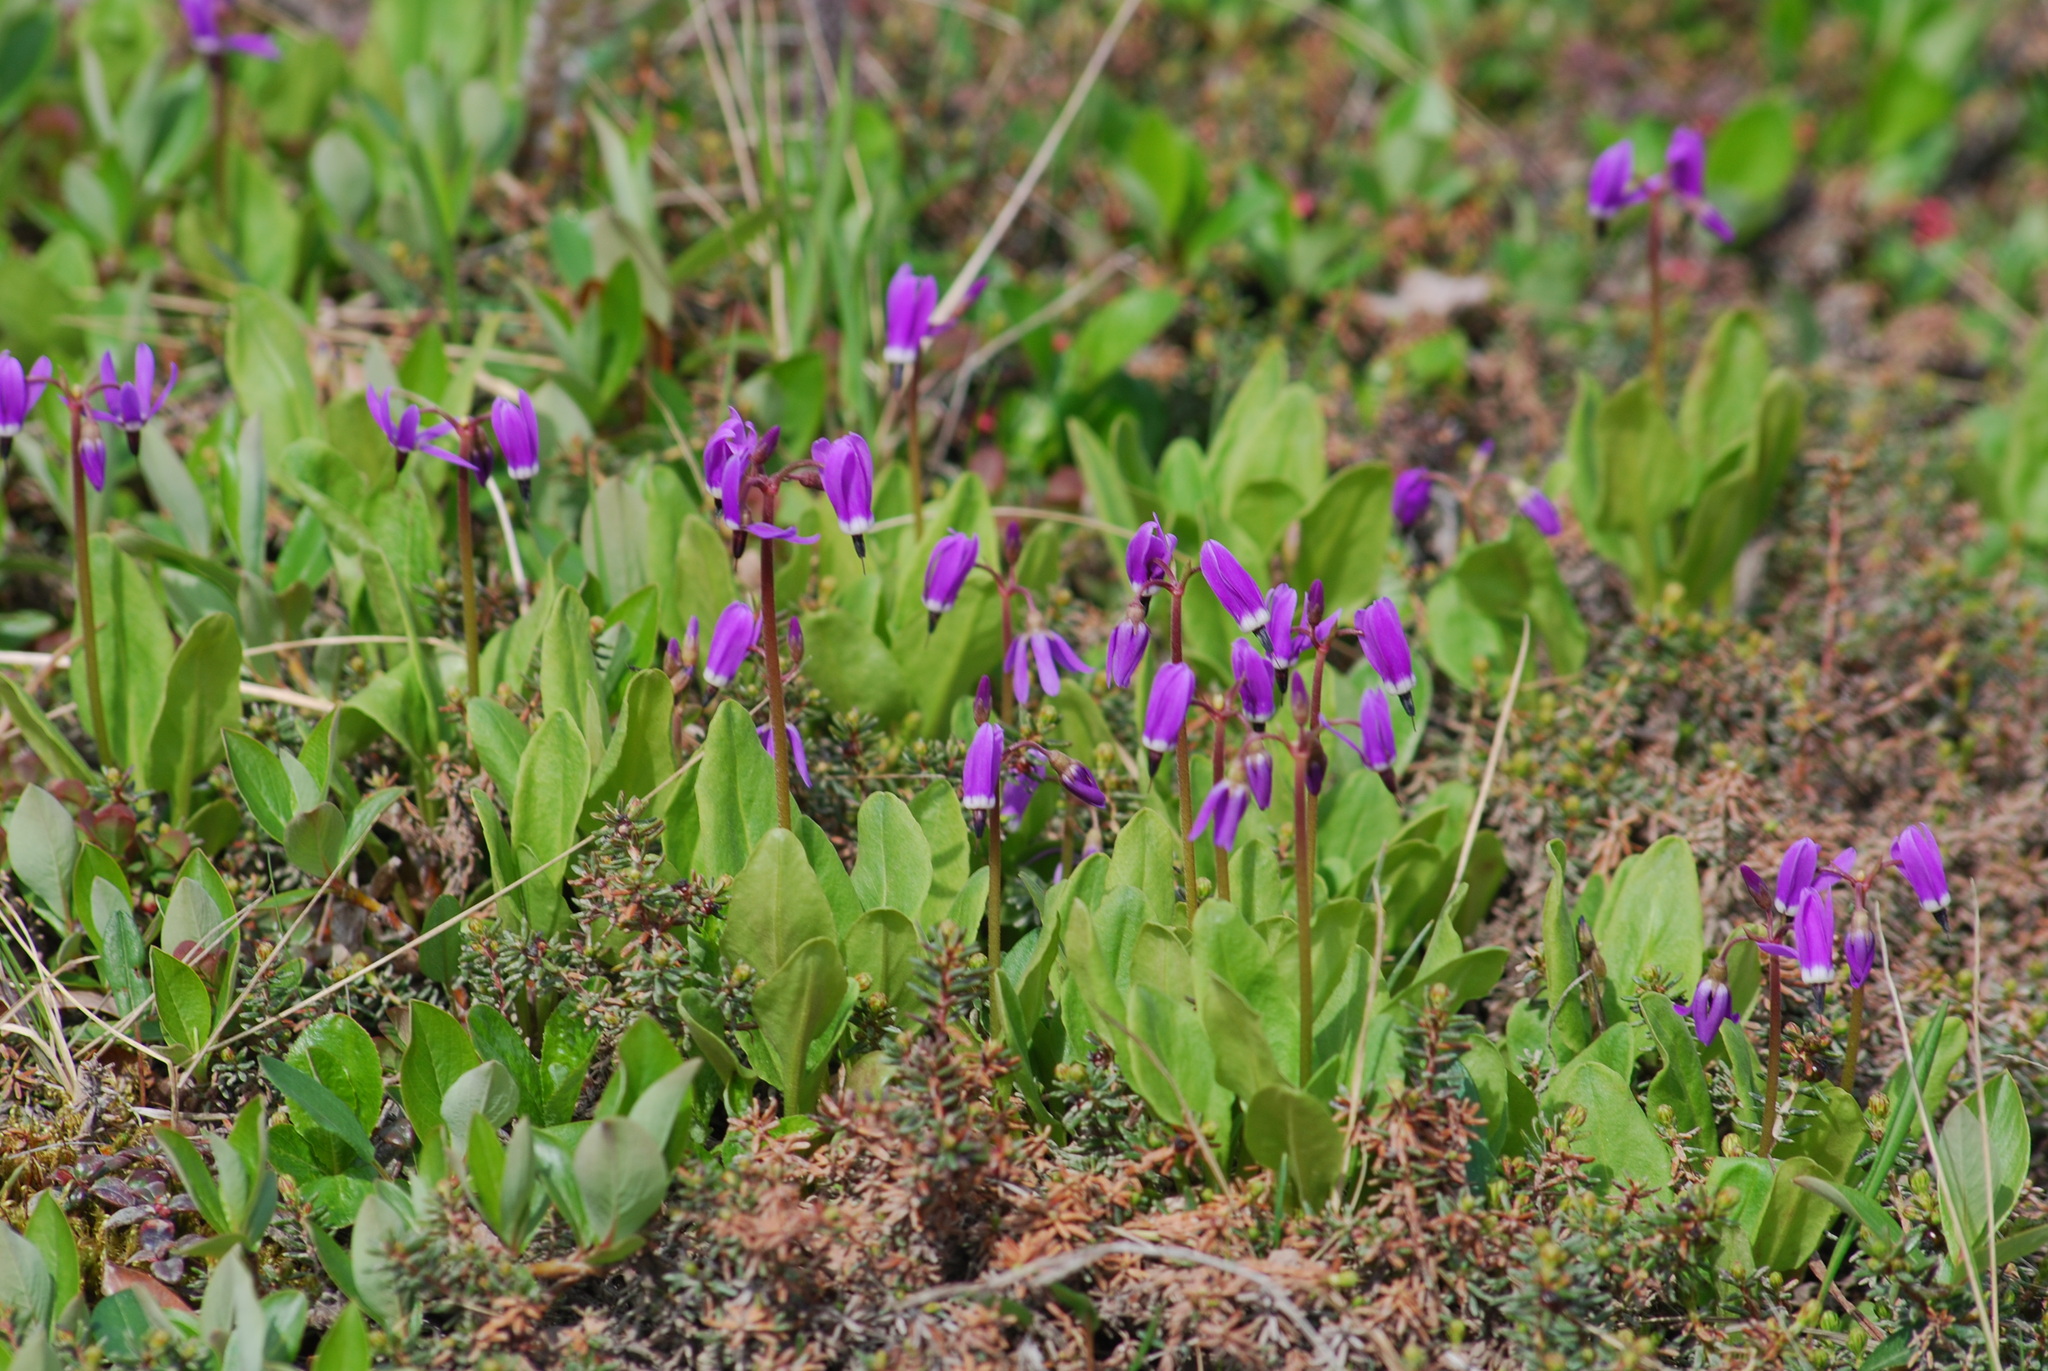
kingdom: Plantae
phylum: Tracheophyta
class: Magnoliopsida
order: Ericales
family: Primulaceae
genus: Dodecatheon
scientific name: Dodecatheon frigidum
